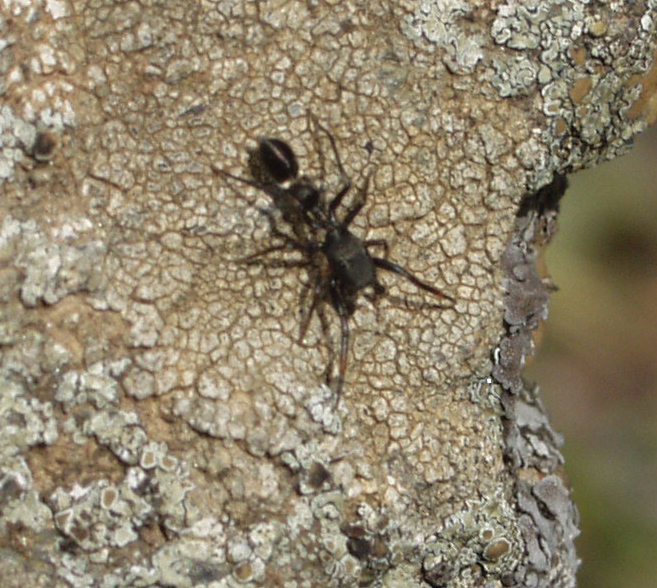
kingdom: Animalia
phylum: Arthropoda
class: Arachnida
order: Araneae
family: Salticidae
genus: Synageles
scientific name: Synageles venator
